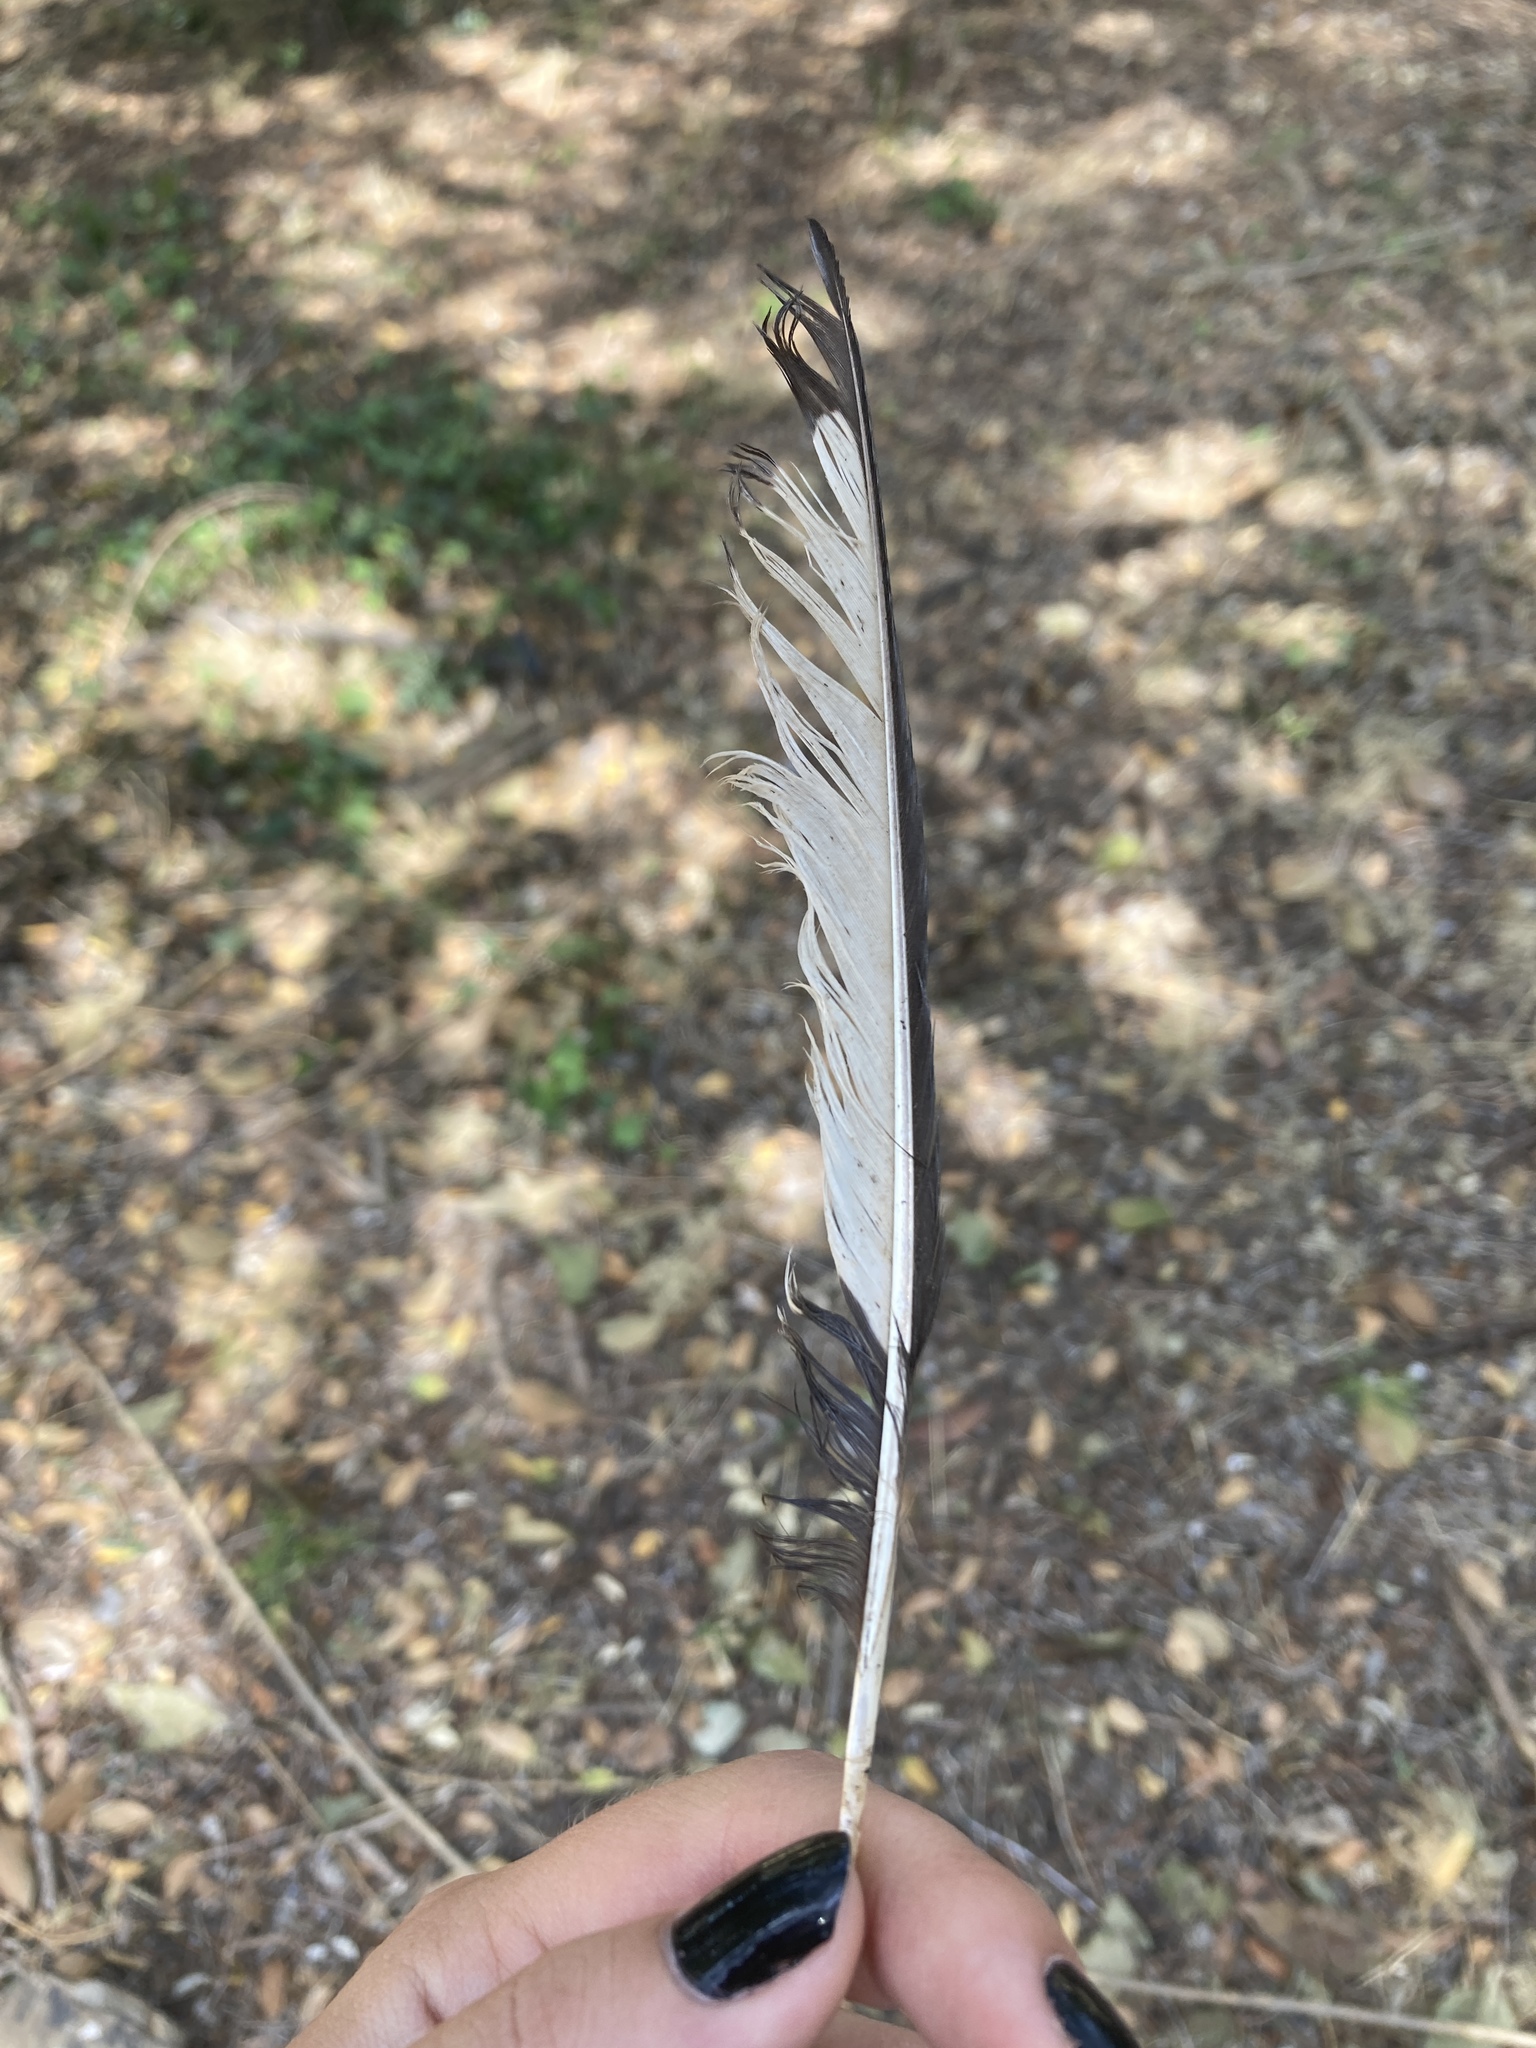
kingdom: Animalia
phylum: Chordata
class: Aves
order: Passeriformes
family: Corvidae
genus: Pica
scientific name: Pica pica
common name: Eurasian magpie
